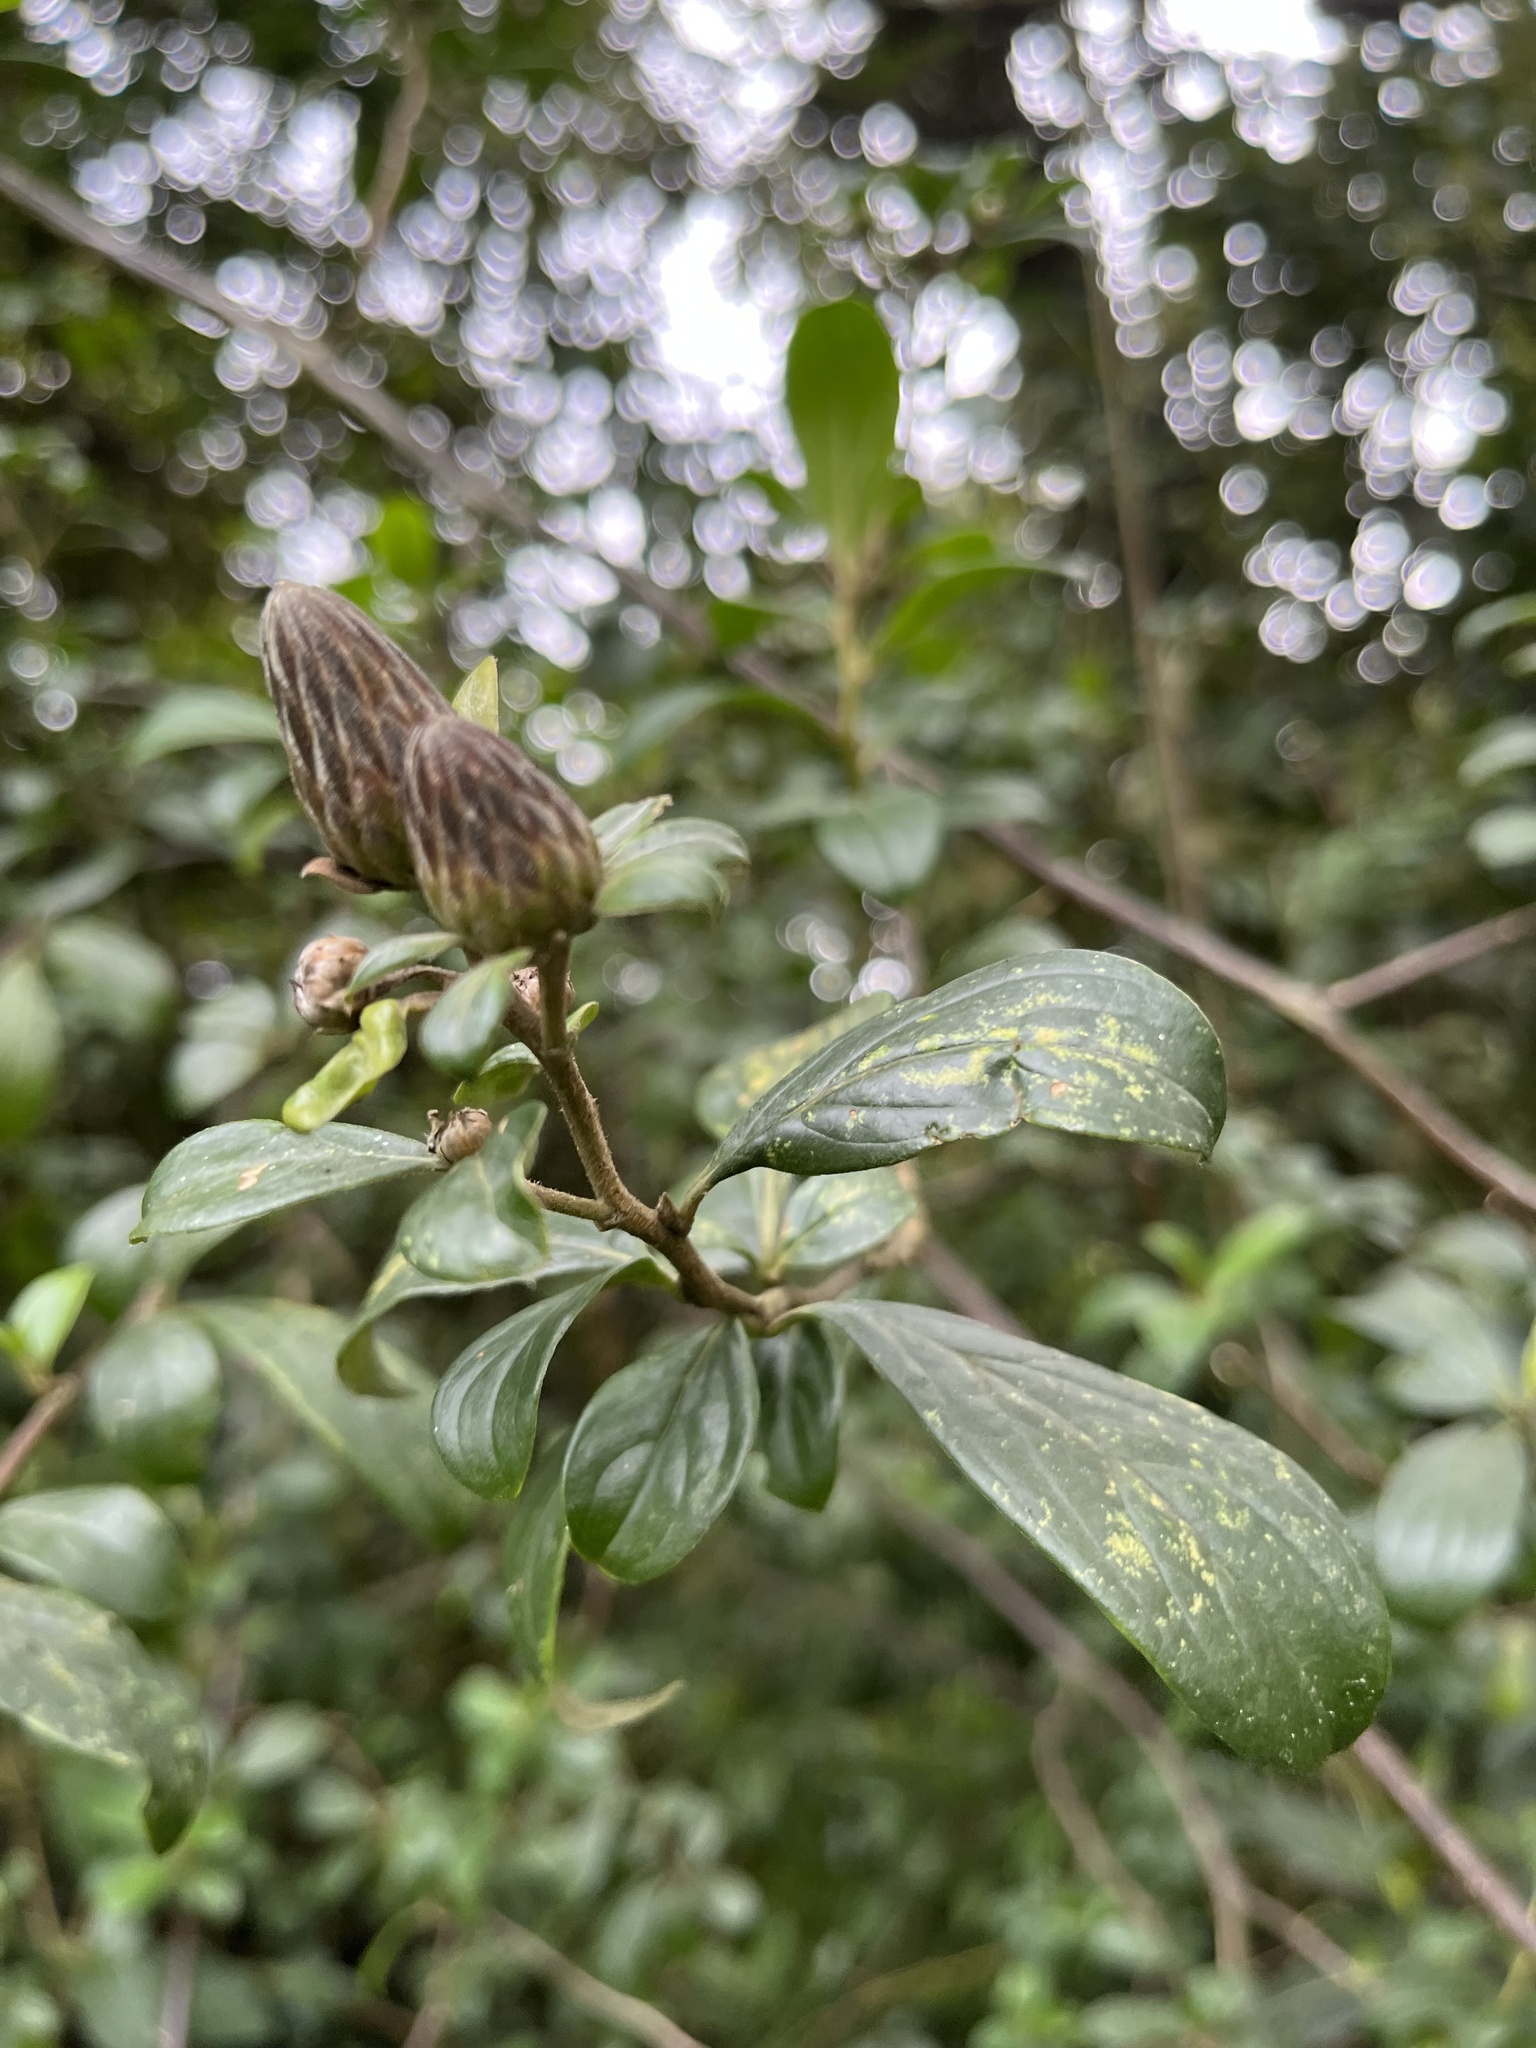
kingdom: Plantae
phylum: Tracheophyta
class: Magnoliopsida
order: Asterales
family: Asteraceae
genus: Barnadesia
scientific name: Barnadesia spinosa
